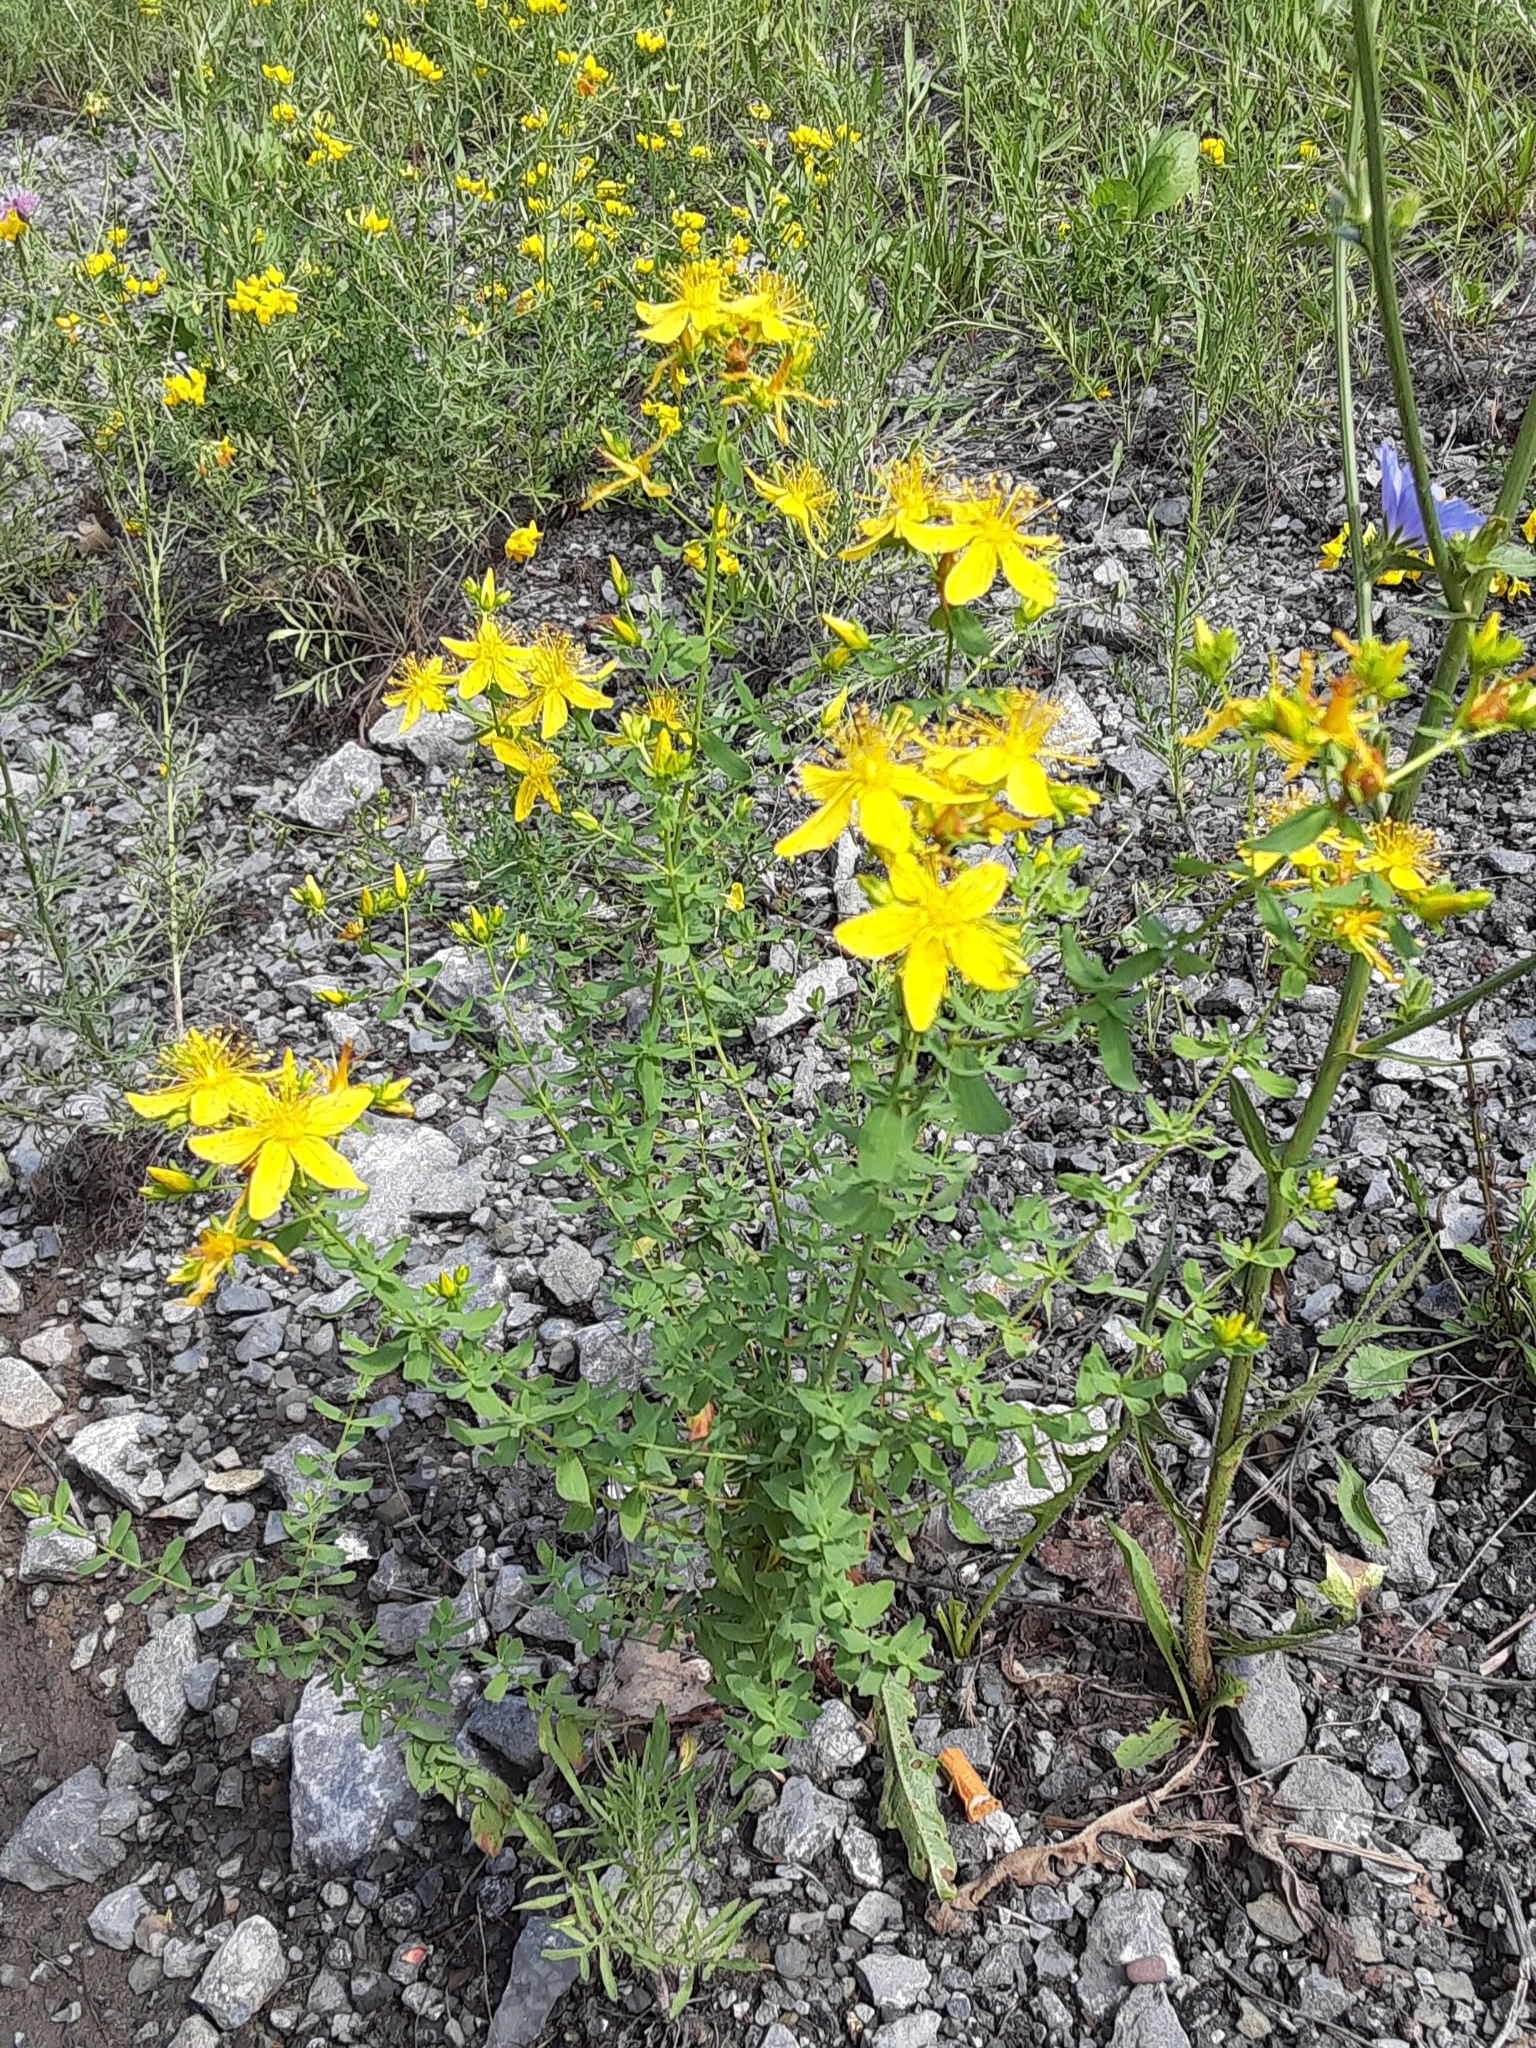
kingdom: Plantae
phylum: Tracheophyta
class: Magnoliopsida
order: Malpighiales
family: Hypericaceae
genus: Hypericum
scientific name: Hypericum perforatum
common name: Common st. johnswort
